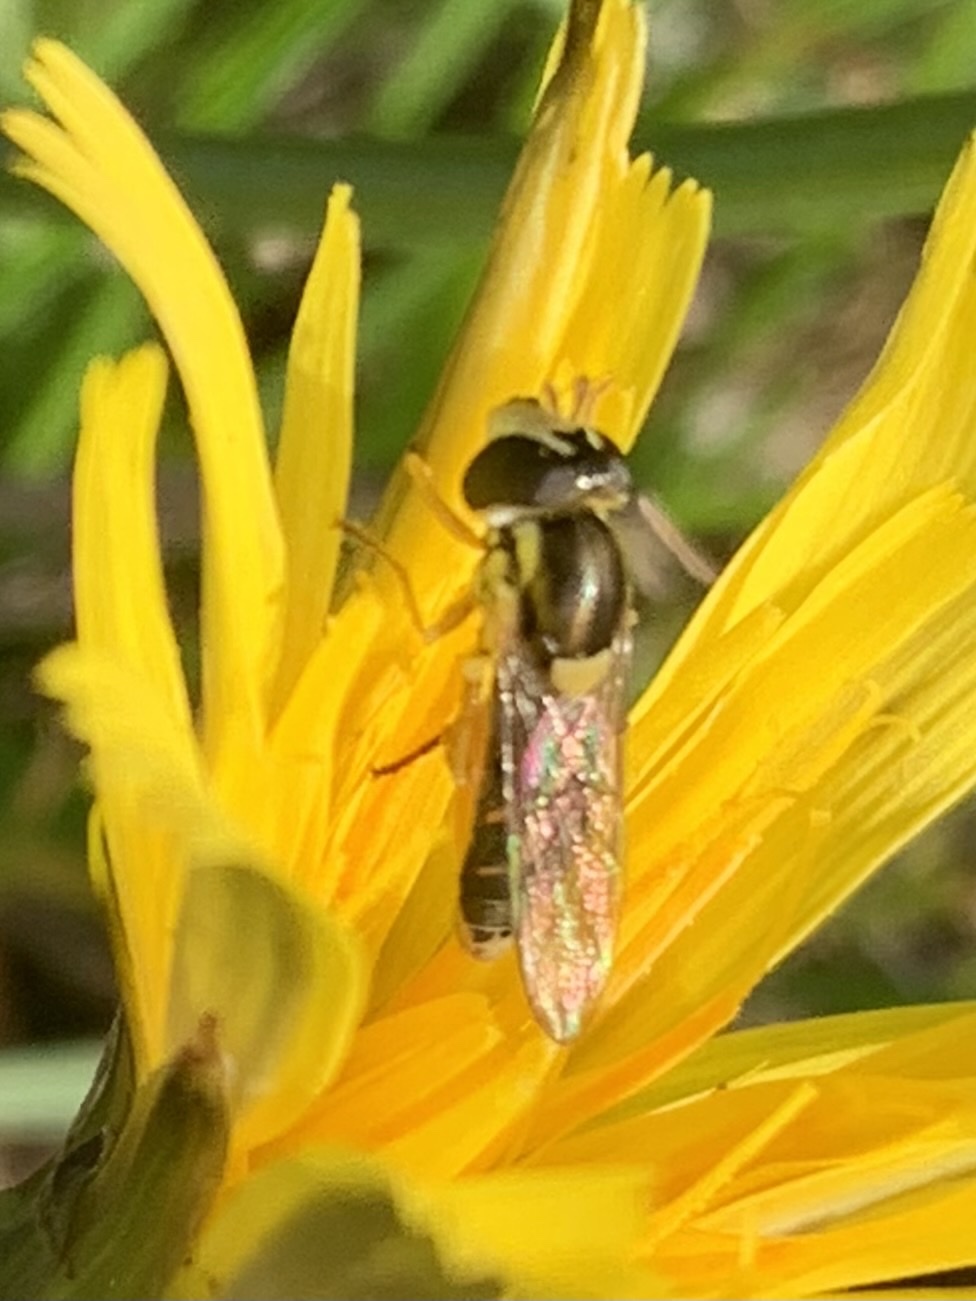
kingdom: Animalia
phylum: Arthropoda
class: Insecta
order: Diptera
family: Syrphidae
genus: Sphaerophoria
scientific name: Sphaerophoria sulphuripes
